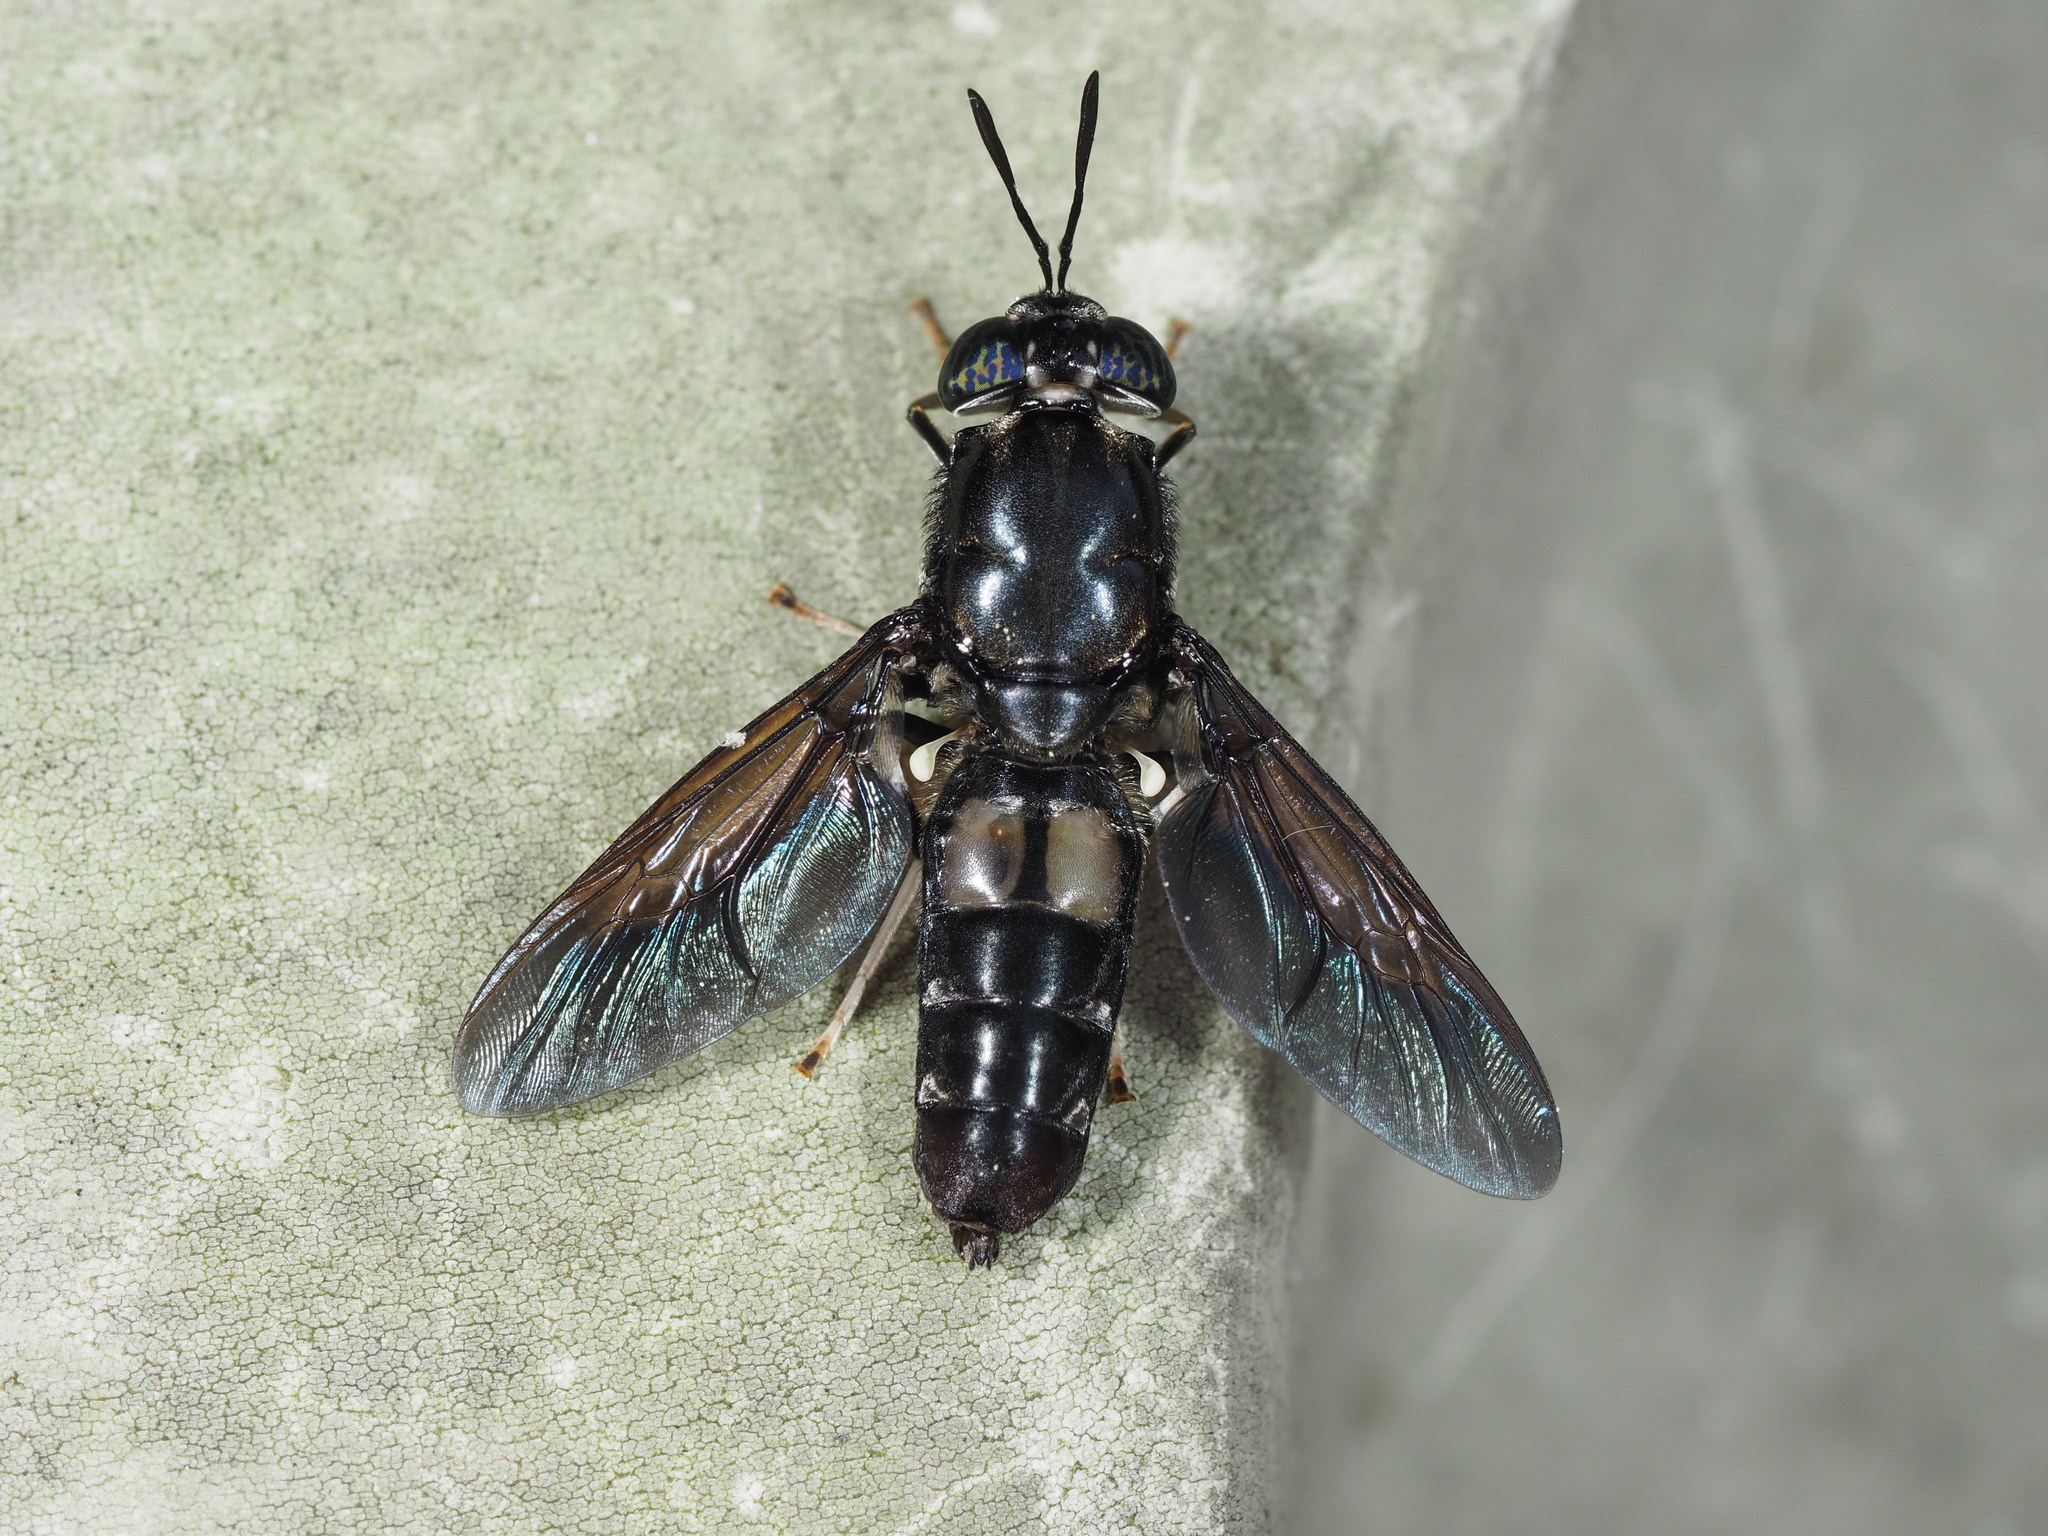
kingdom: Animalia
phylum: Arthropoda
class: Insecta
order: Diptera
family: Stratiomyidae
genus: Hermetia
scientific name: Hermetia illucens
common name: Black soldier fly
